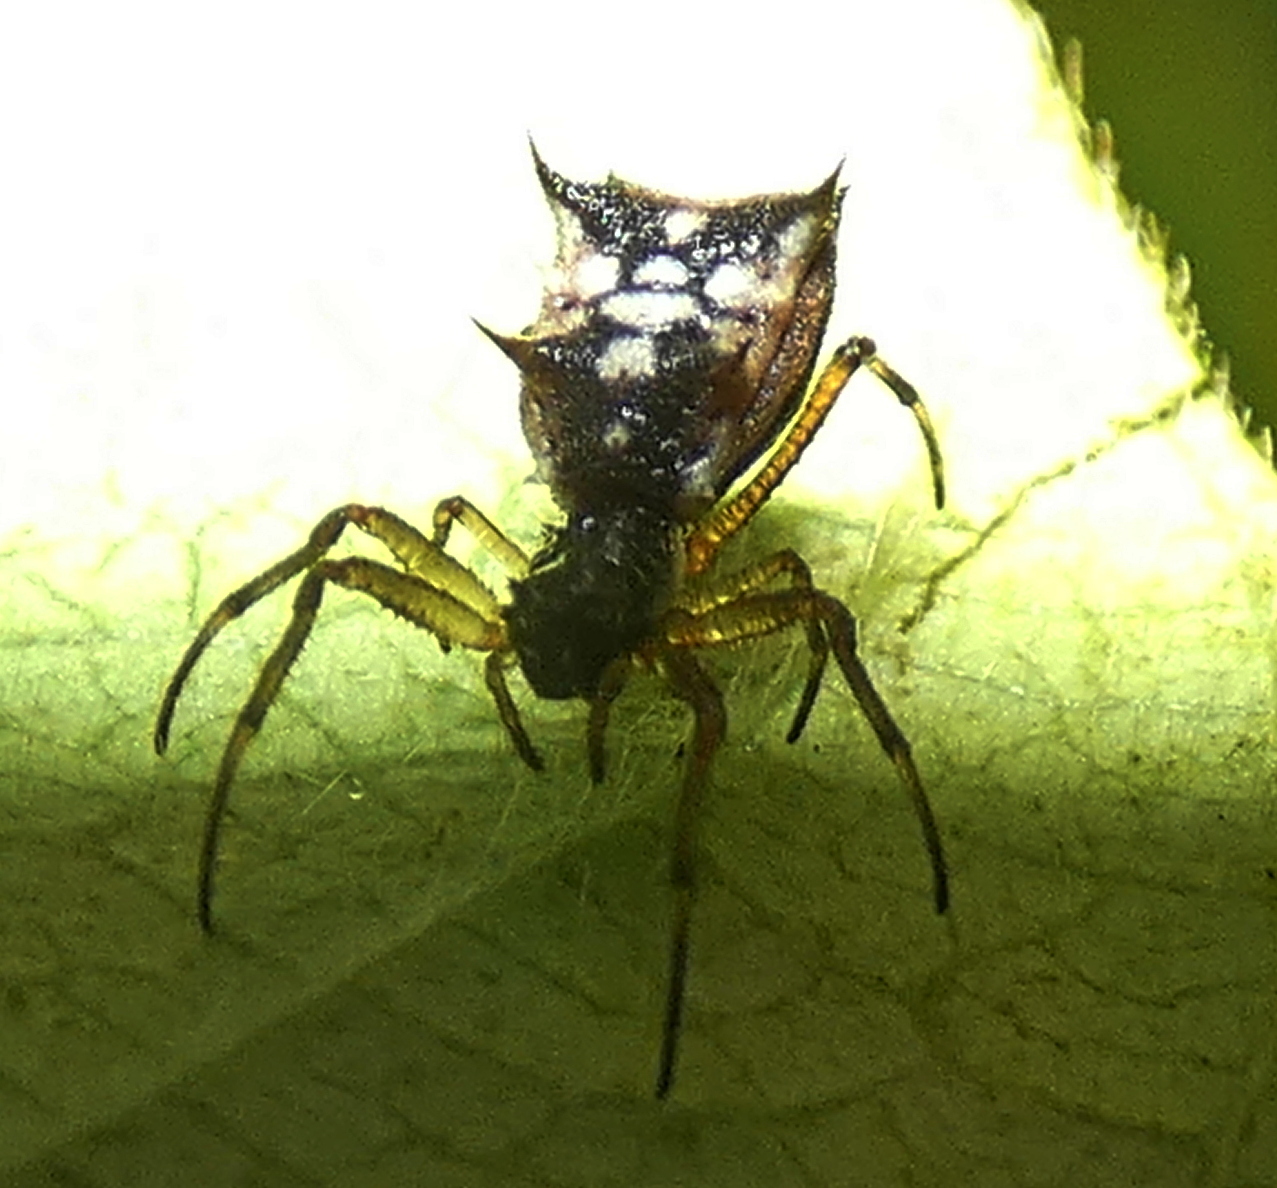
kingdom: Animalia
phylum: Arthropoda
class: Arachnida
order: Araneae
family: Araneidae
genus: Micrathena
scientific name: Micrathena picta
